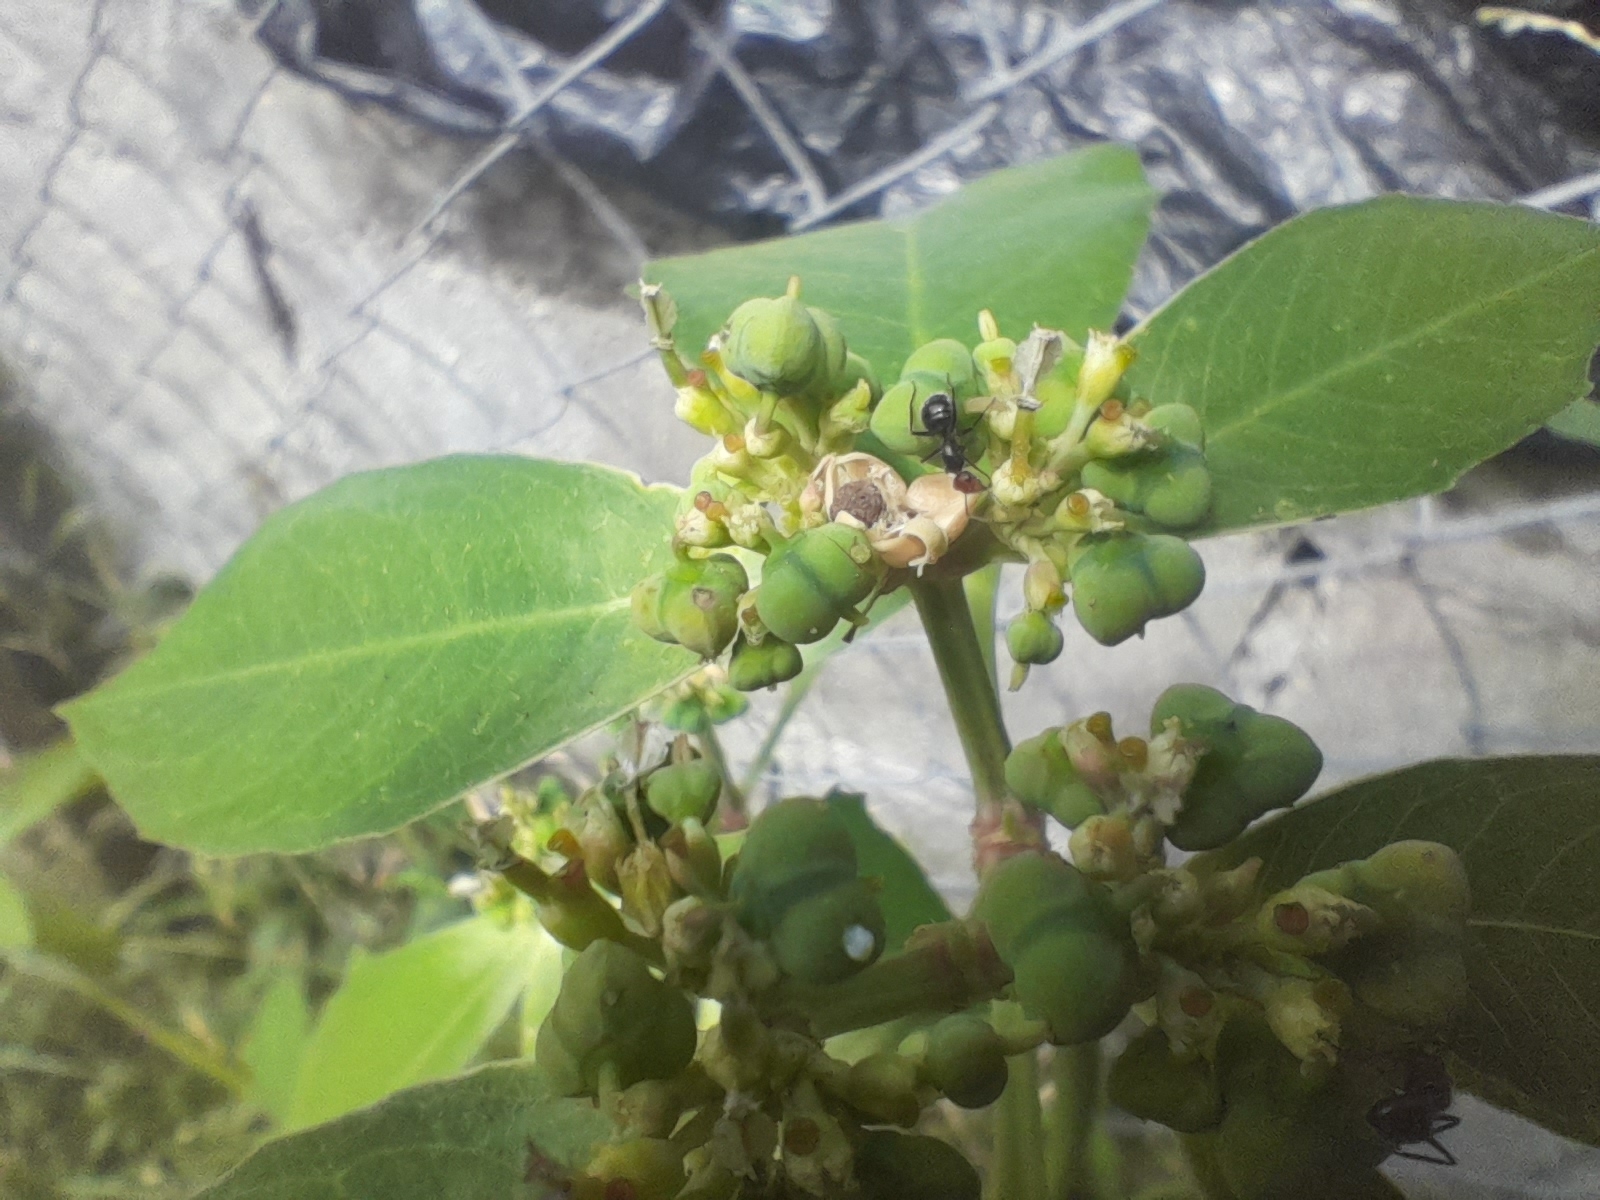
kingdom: Plantae
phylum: Tracheophyta
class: Magnoliopsida
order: Malpighiales
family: Euphorbiaceae
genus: Euphorbia
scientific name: Euphorbia heterophylla
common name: Mexican fireplant
